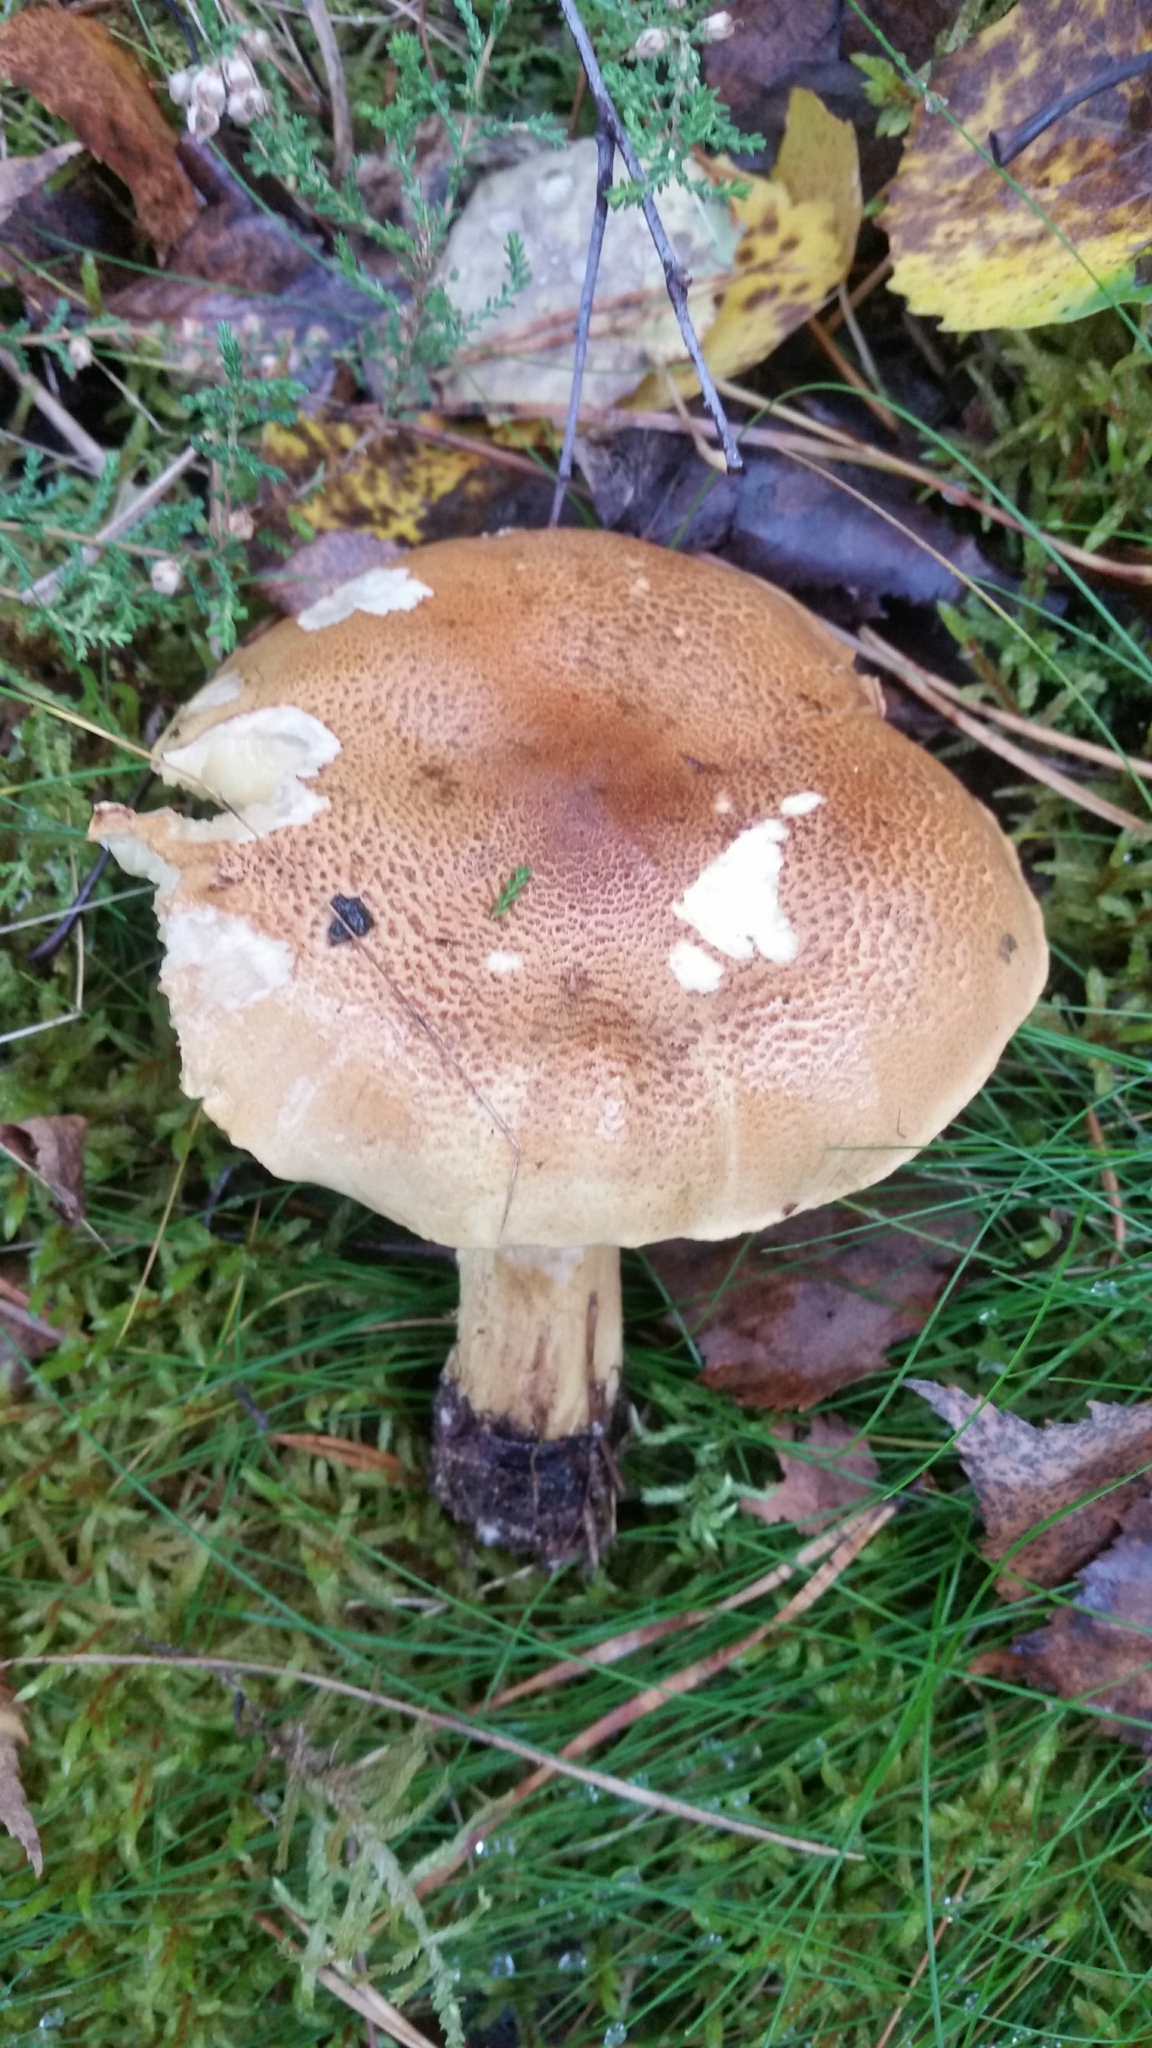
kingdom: Fungi
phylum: Basidiomycota
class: Agaricomycetes
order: Agaricales
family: Tricholomataceae
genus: Tricholoma
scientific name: Tricholoma frondosae
